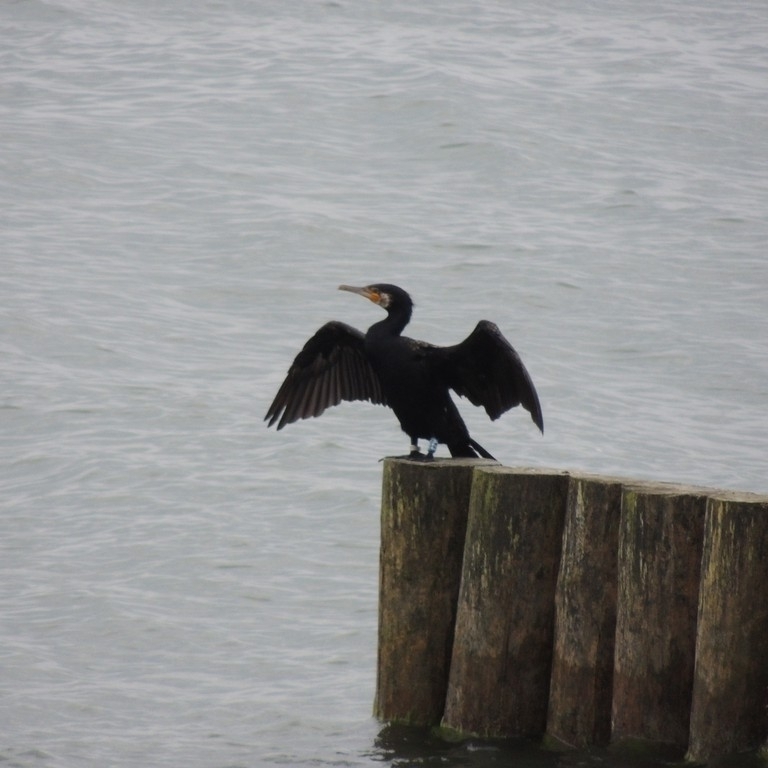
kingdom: Animalia
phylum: Chordata
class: Aves
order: Suliformes
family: Phalacrocoracidae
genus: Phalacrocorax
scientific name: Phalacrocorax carbo
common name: Great cormorant
